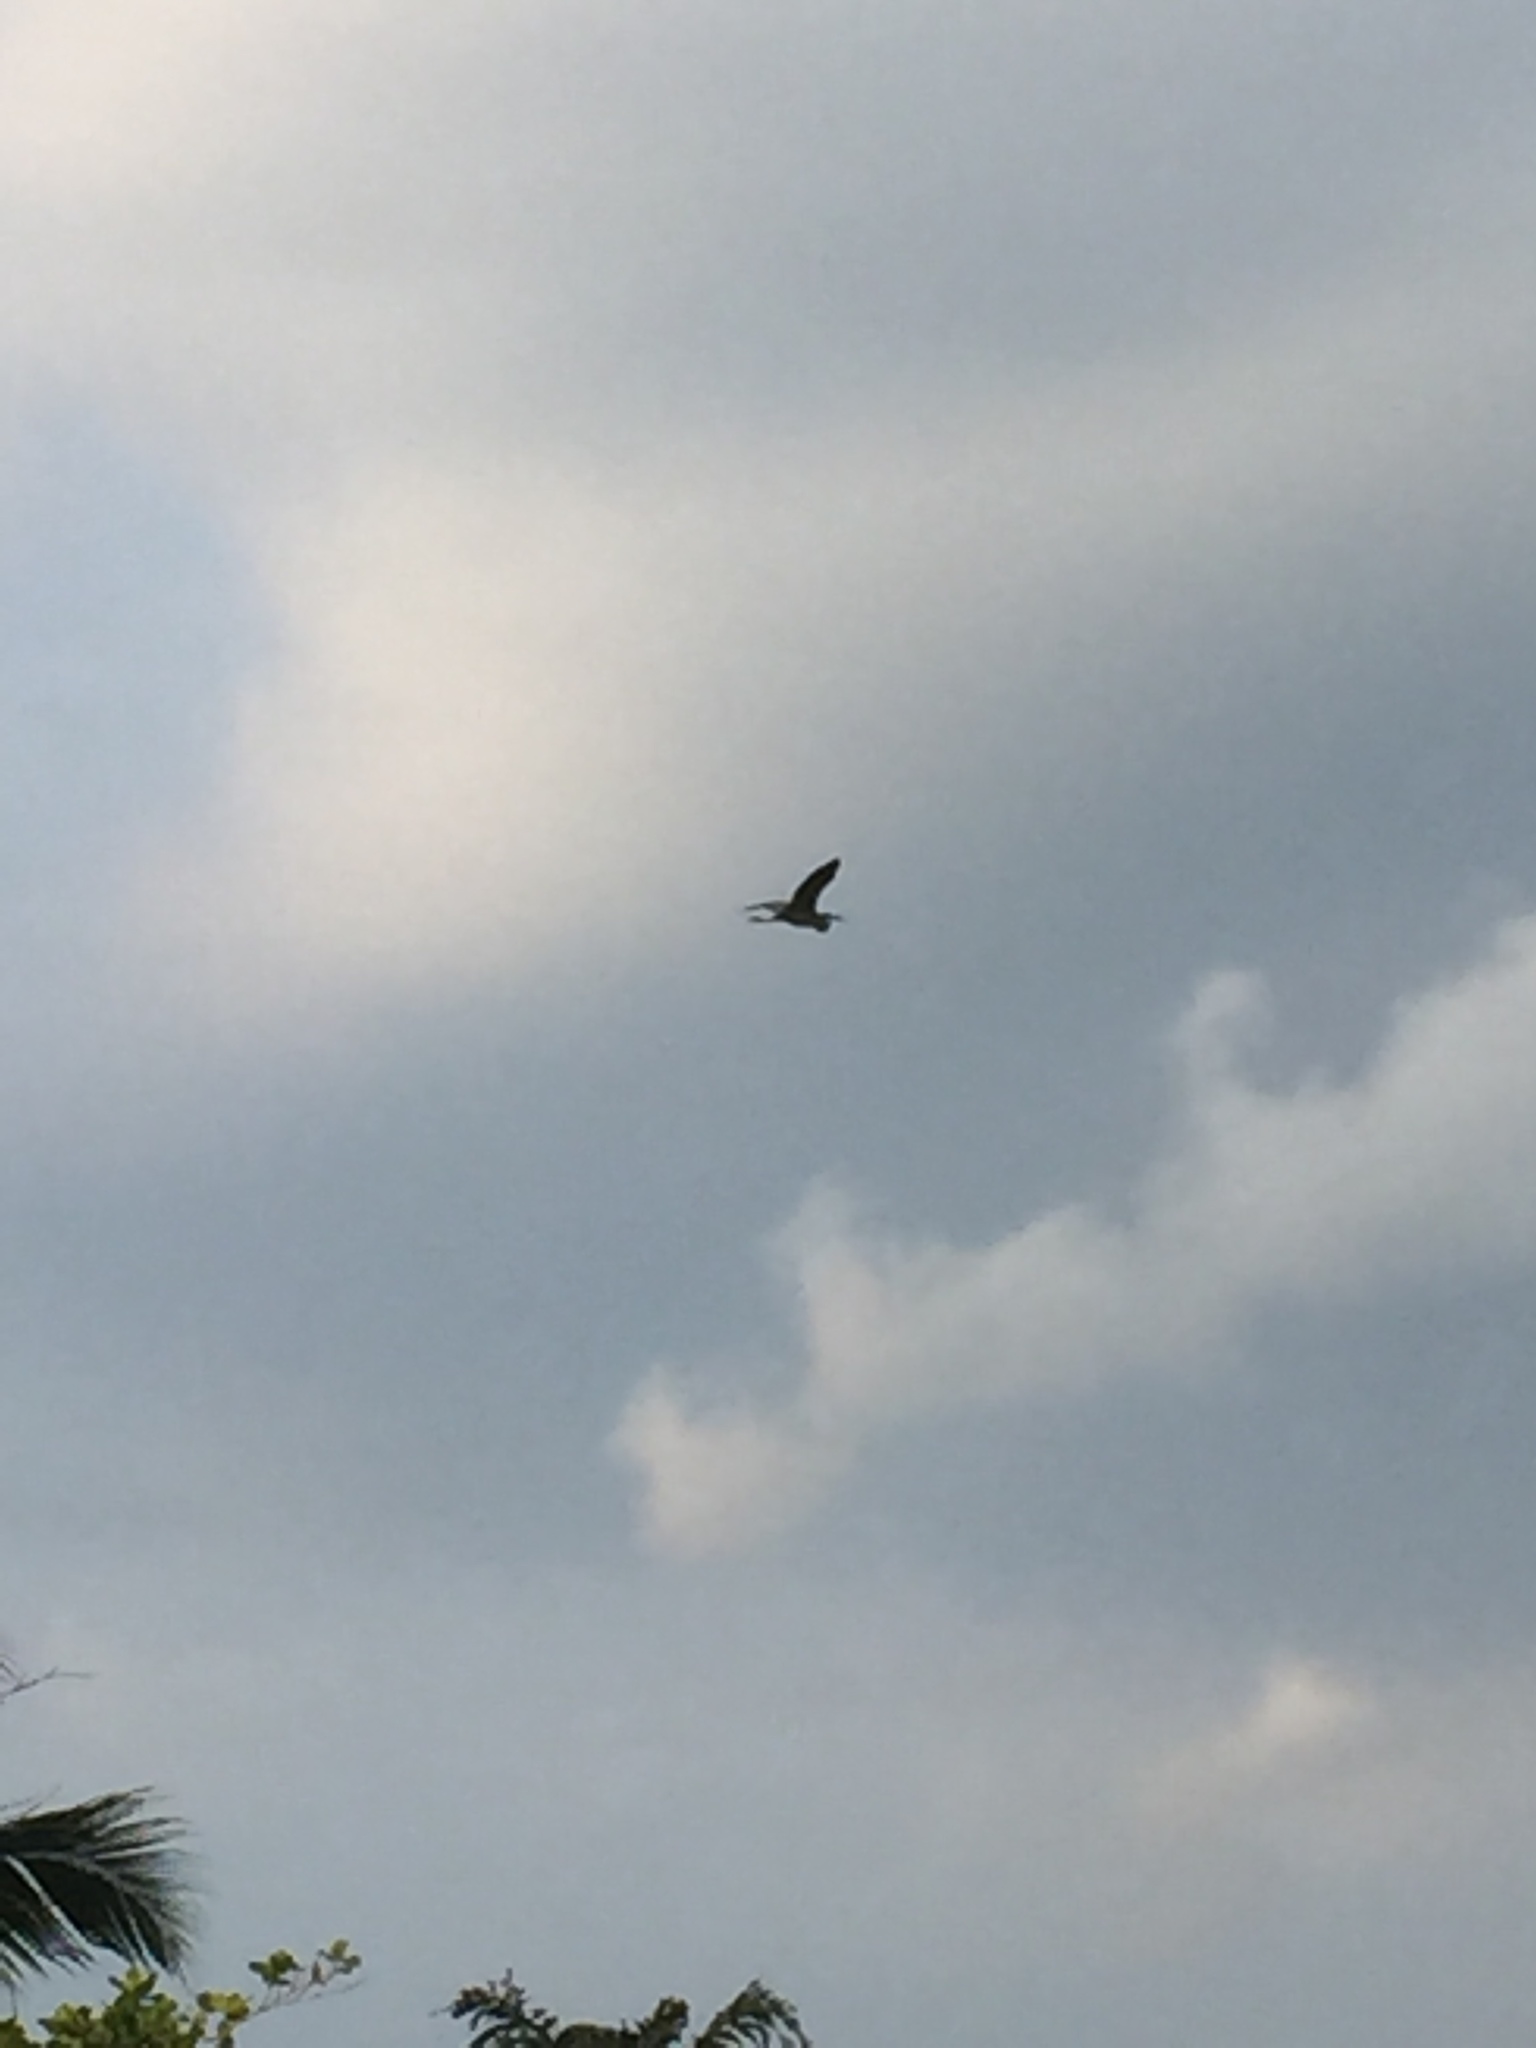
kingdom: Animalia
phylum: Chordata
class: Aves
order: Pelecaniformes
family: Ardeidae
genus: Ardea
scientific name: Ardea purpurea
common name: Purple heron
